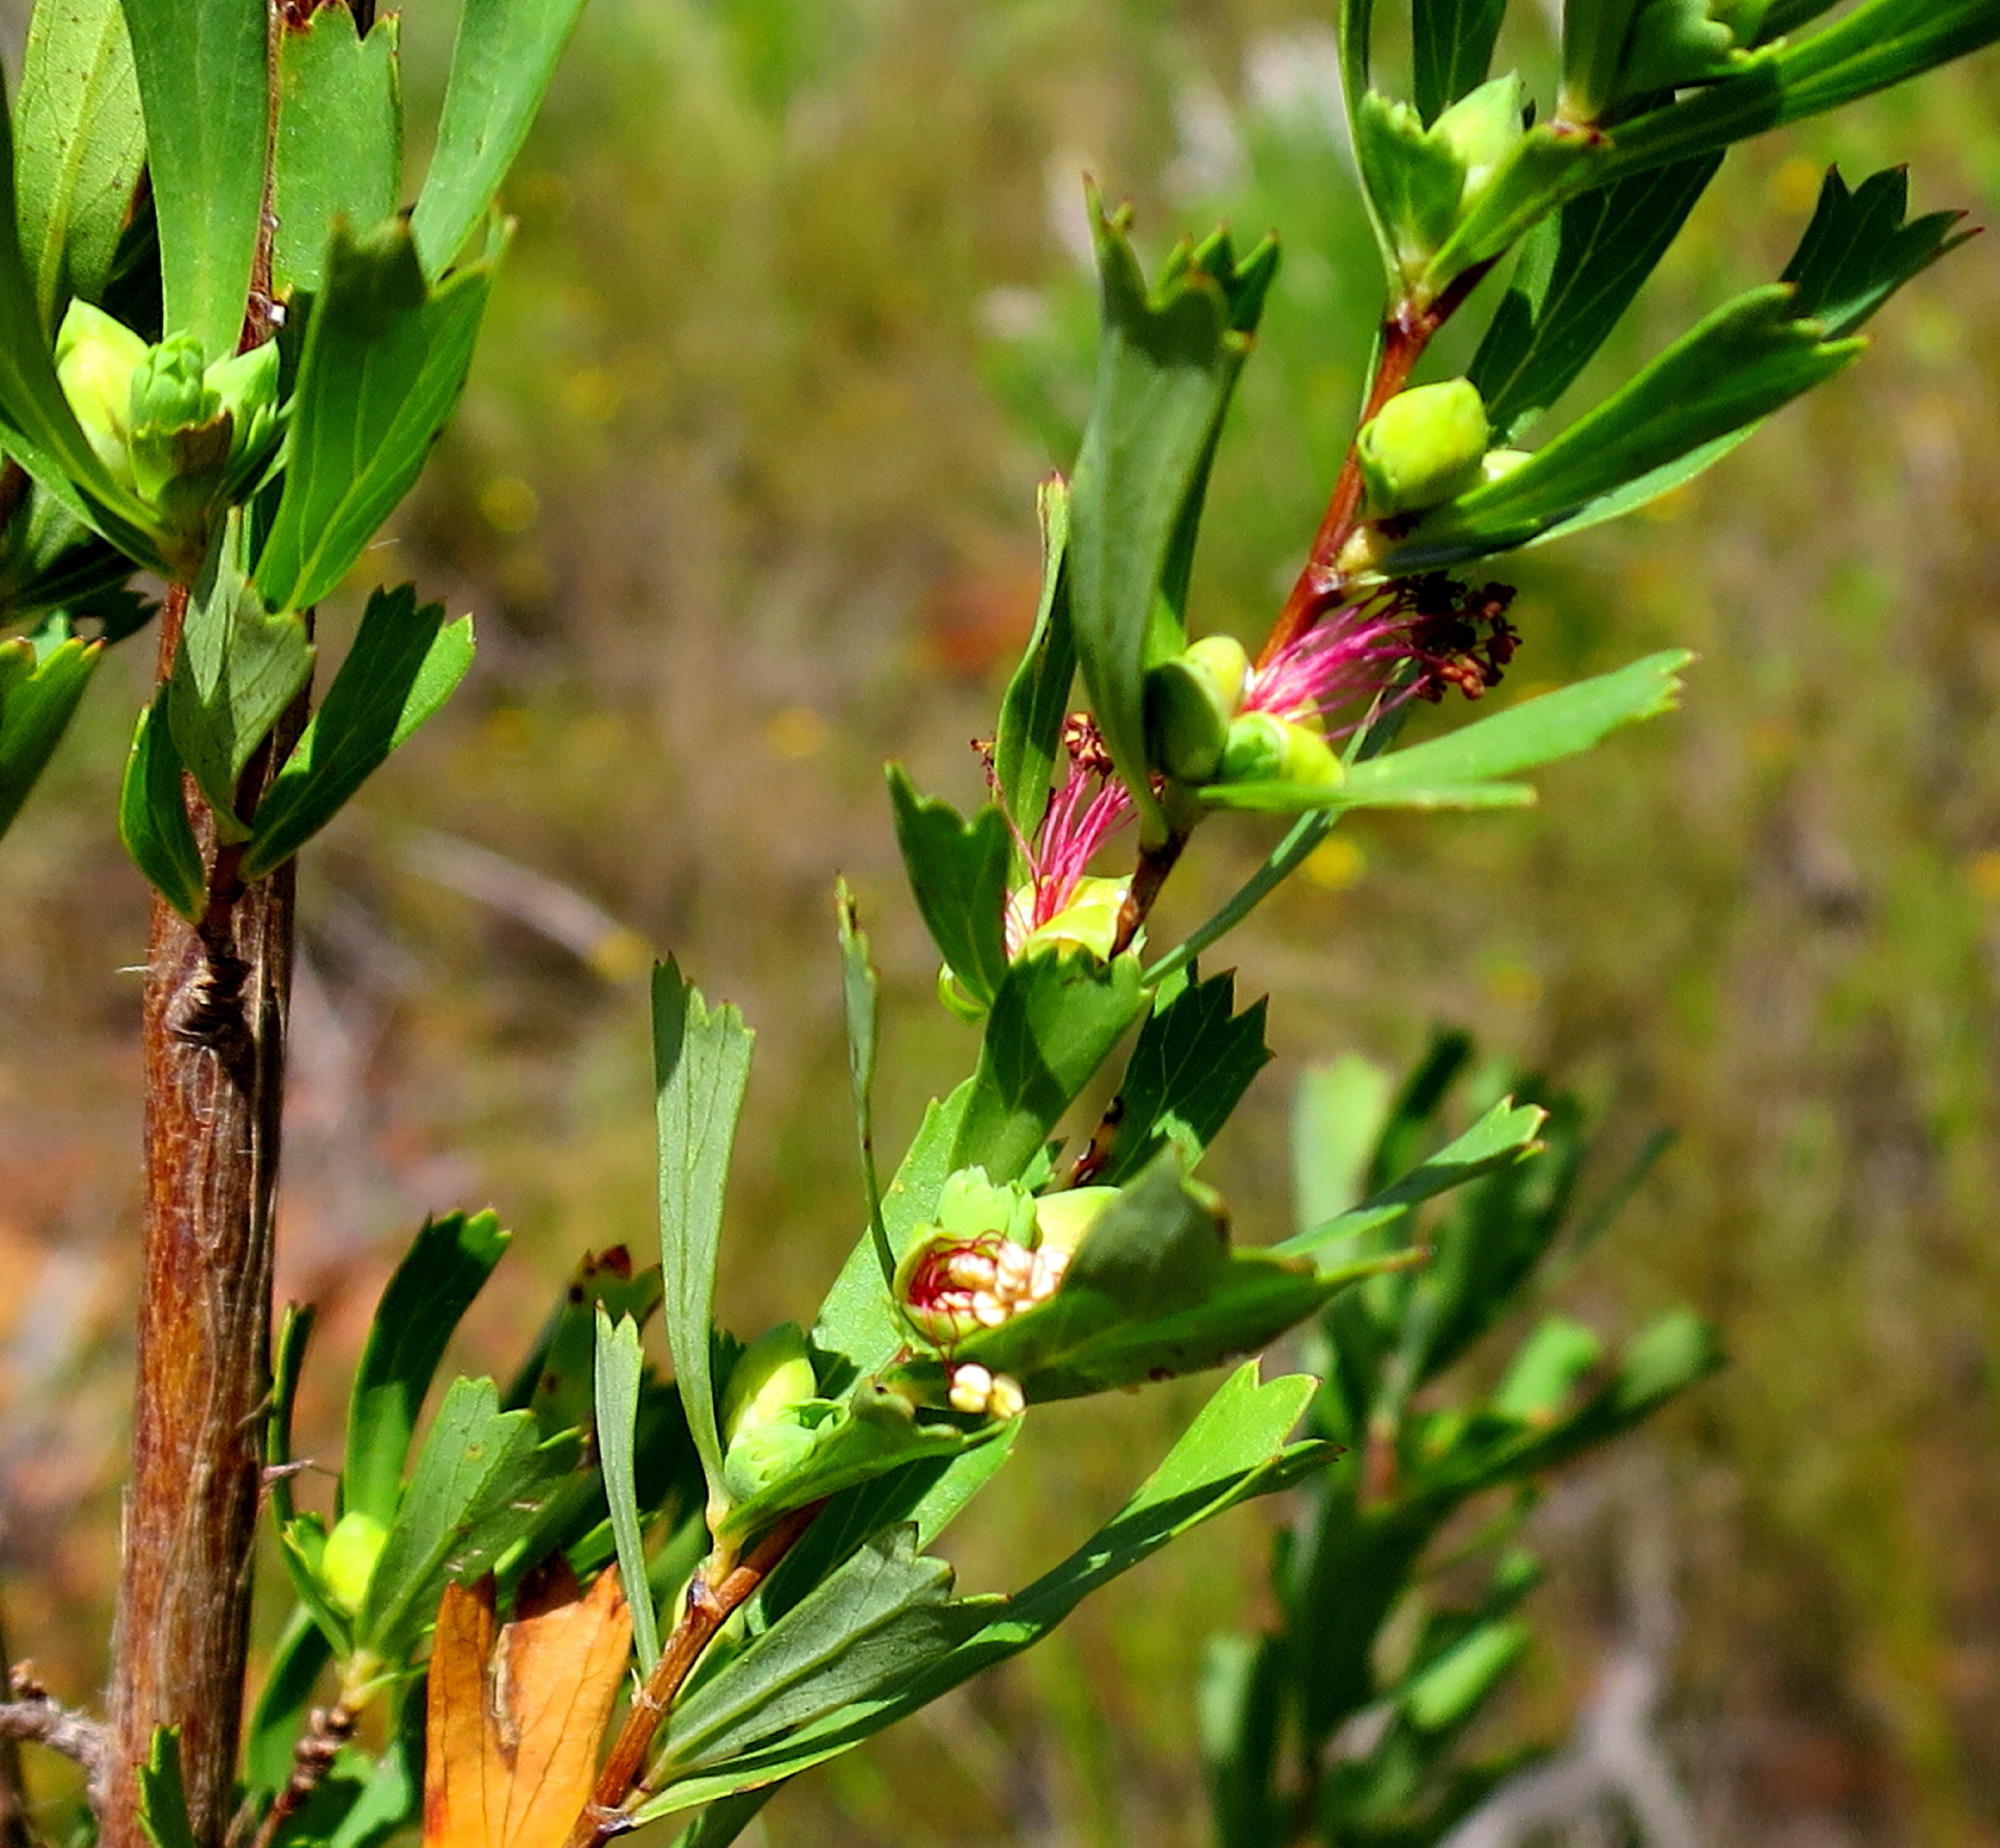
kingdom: Plantae
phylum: Tracheophyta
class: Magnoliopsida
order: Rosales
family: Rosaceae
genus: Cliffortia
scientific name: Cliffortia cuneata
